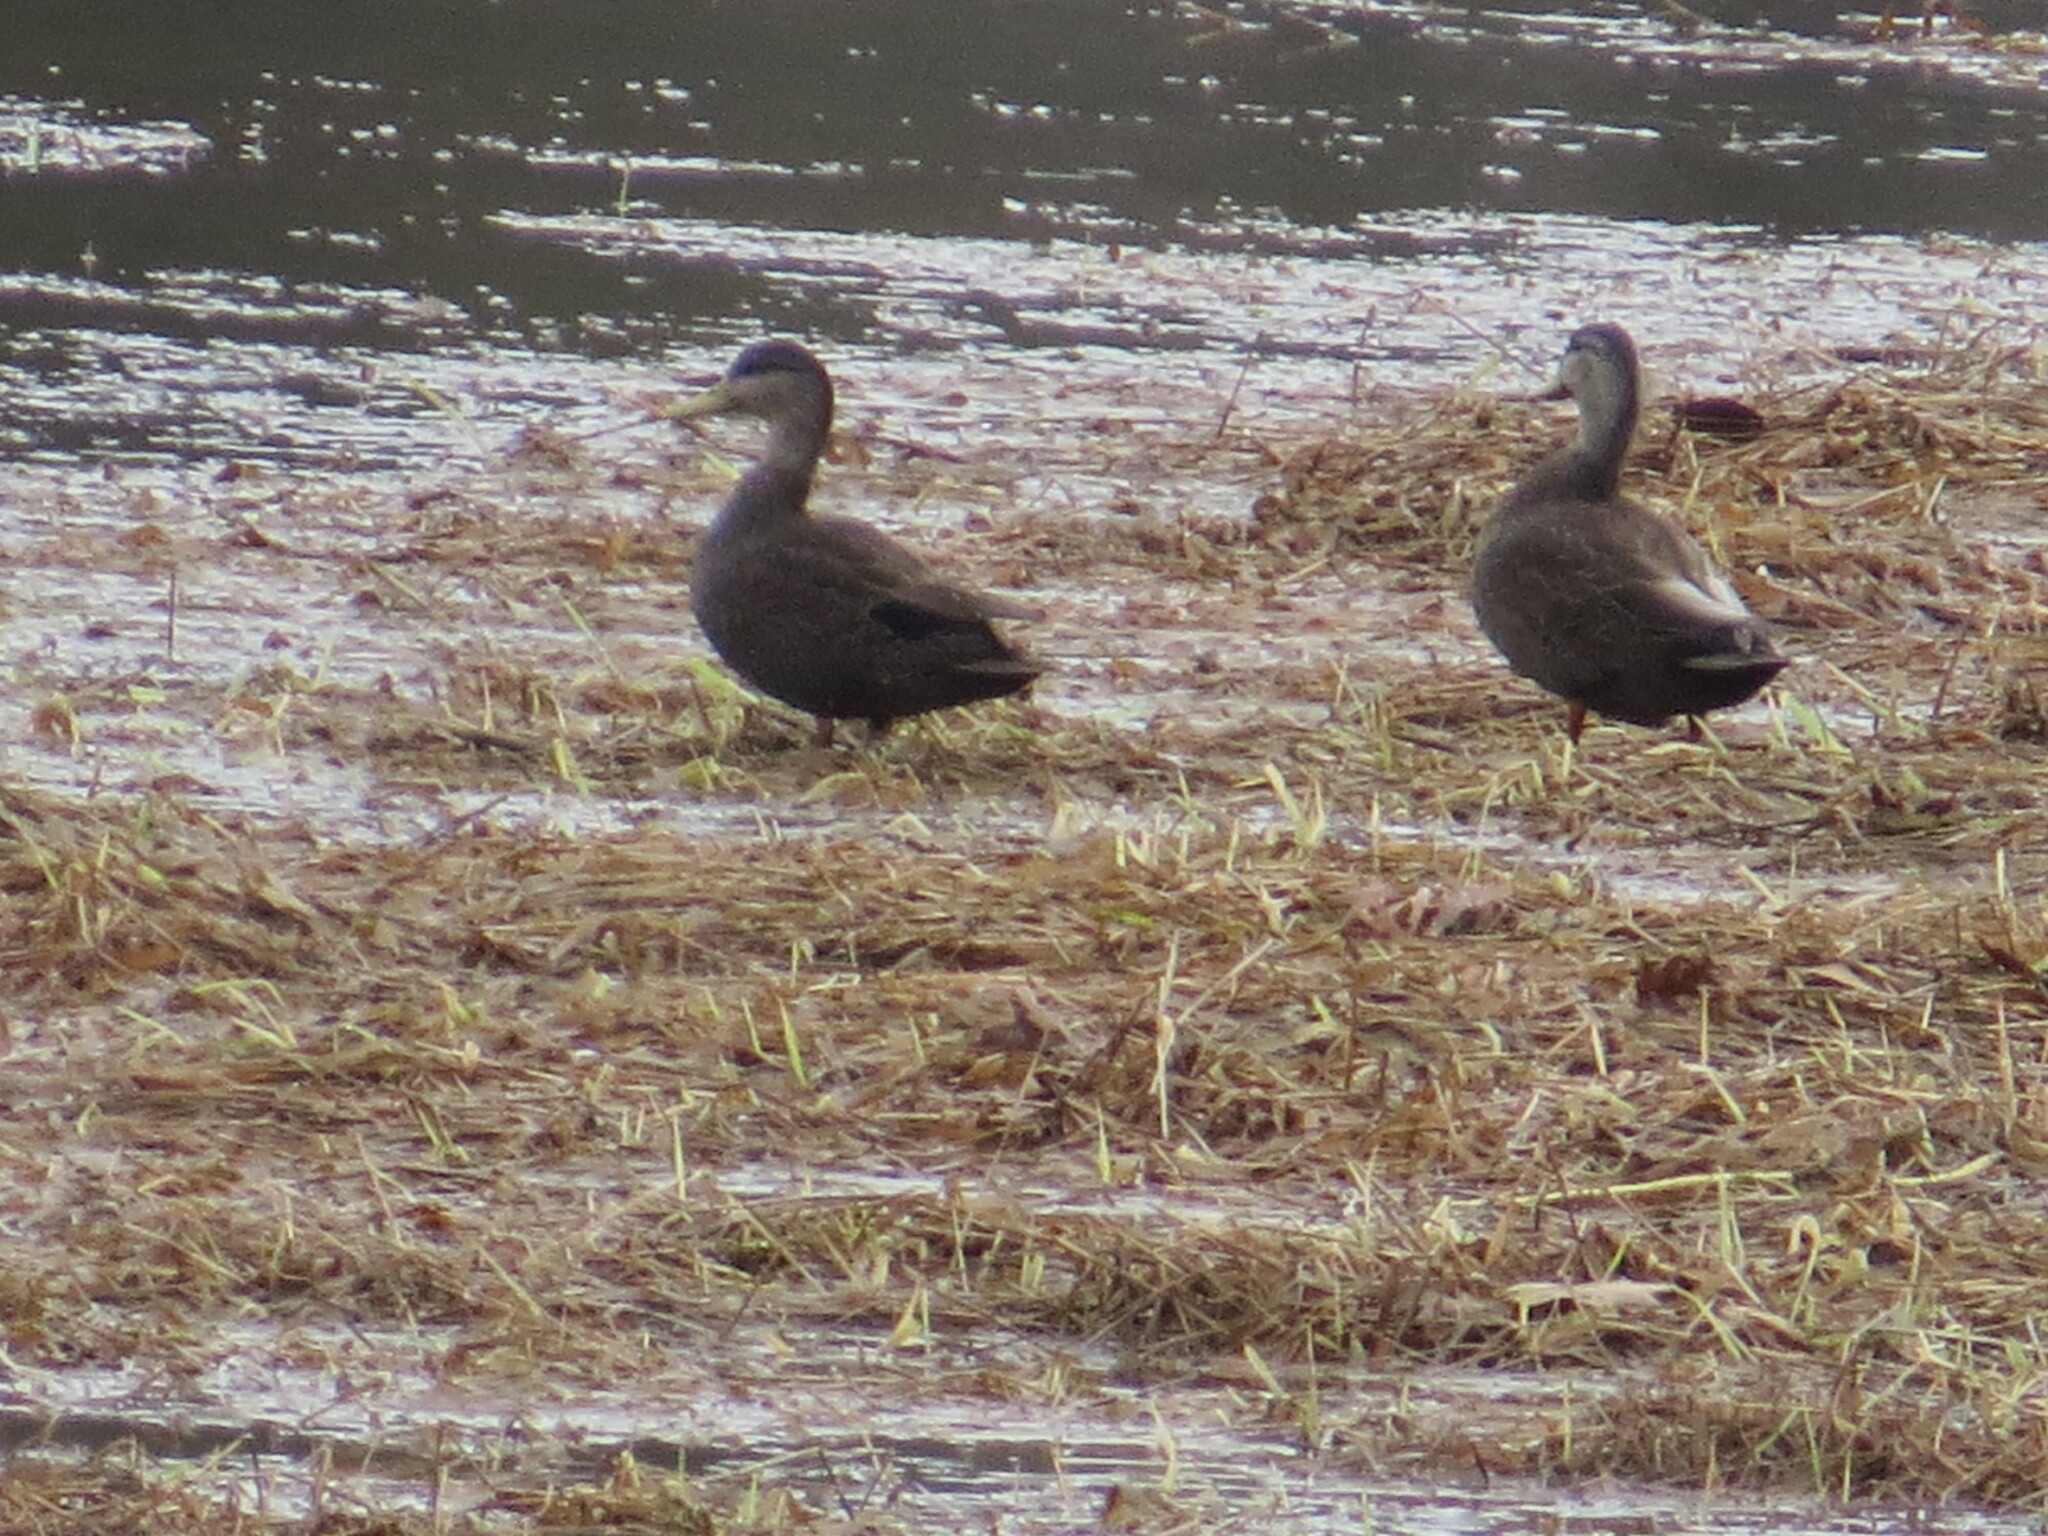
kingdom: Animalia
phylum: Chordata
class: Aves
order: Anseriformes
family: Anatidae
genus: Anas
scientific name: Anas rubripes
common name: American black duck
